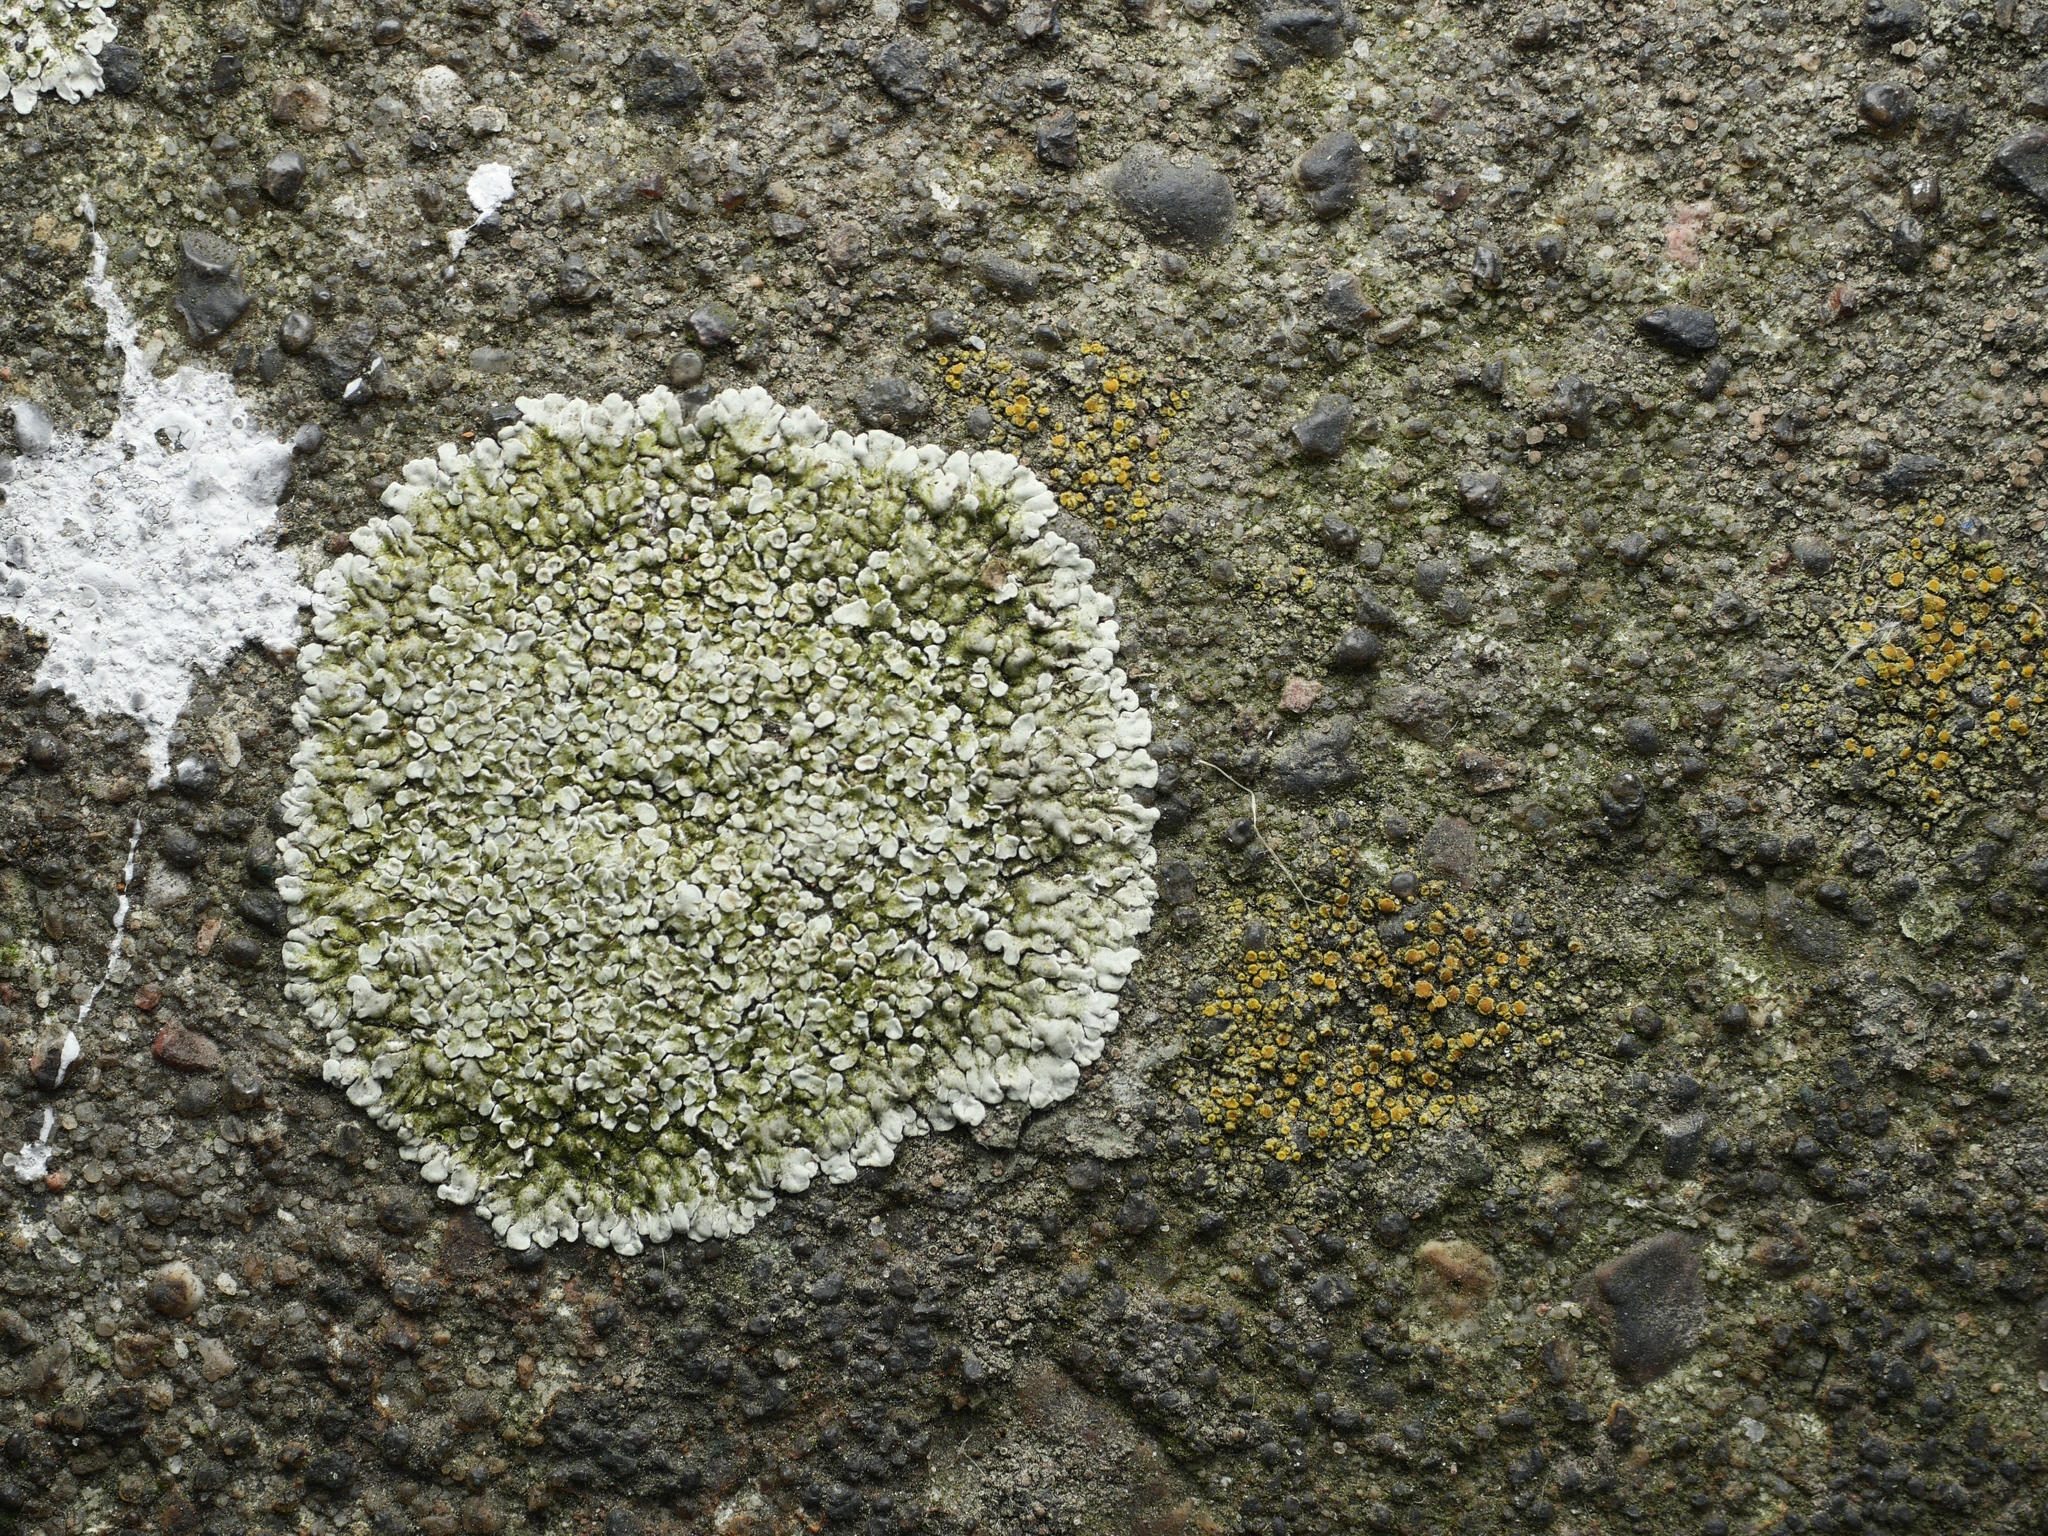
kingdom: Fungi
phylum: Ascomycota
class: Lecanoromycetes
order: Lecanorales
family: Lecanoraceae
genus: Protoparmeliopsis
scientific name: Protoparmeliopsis muralis
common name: Stonewall rim lichen
